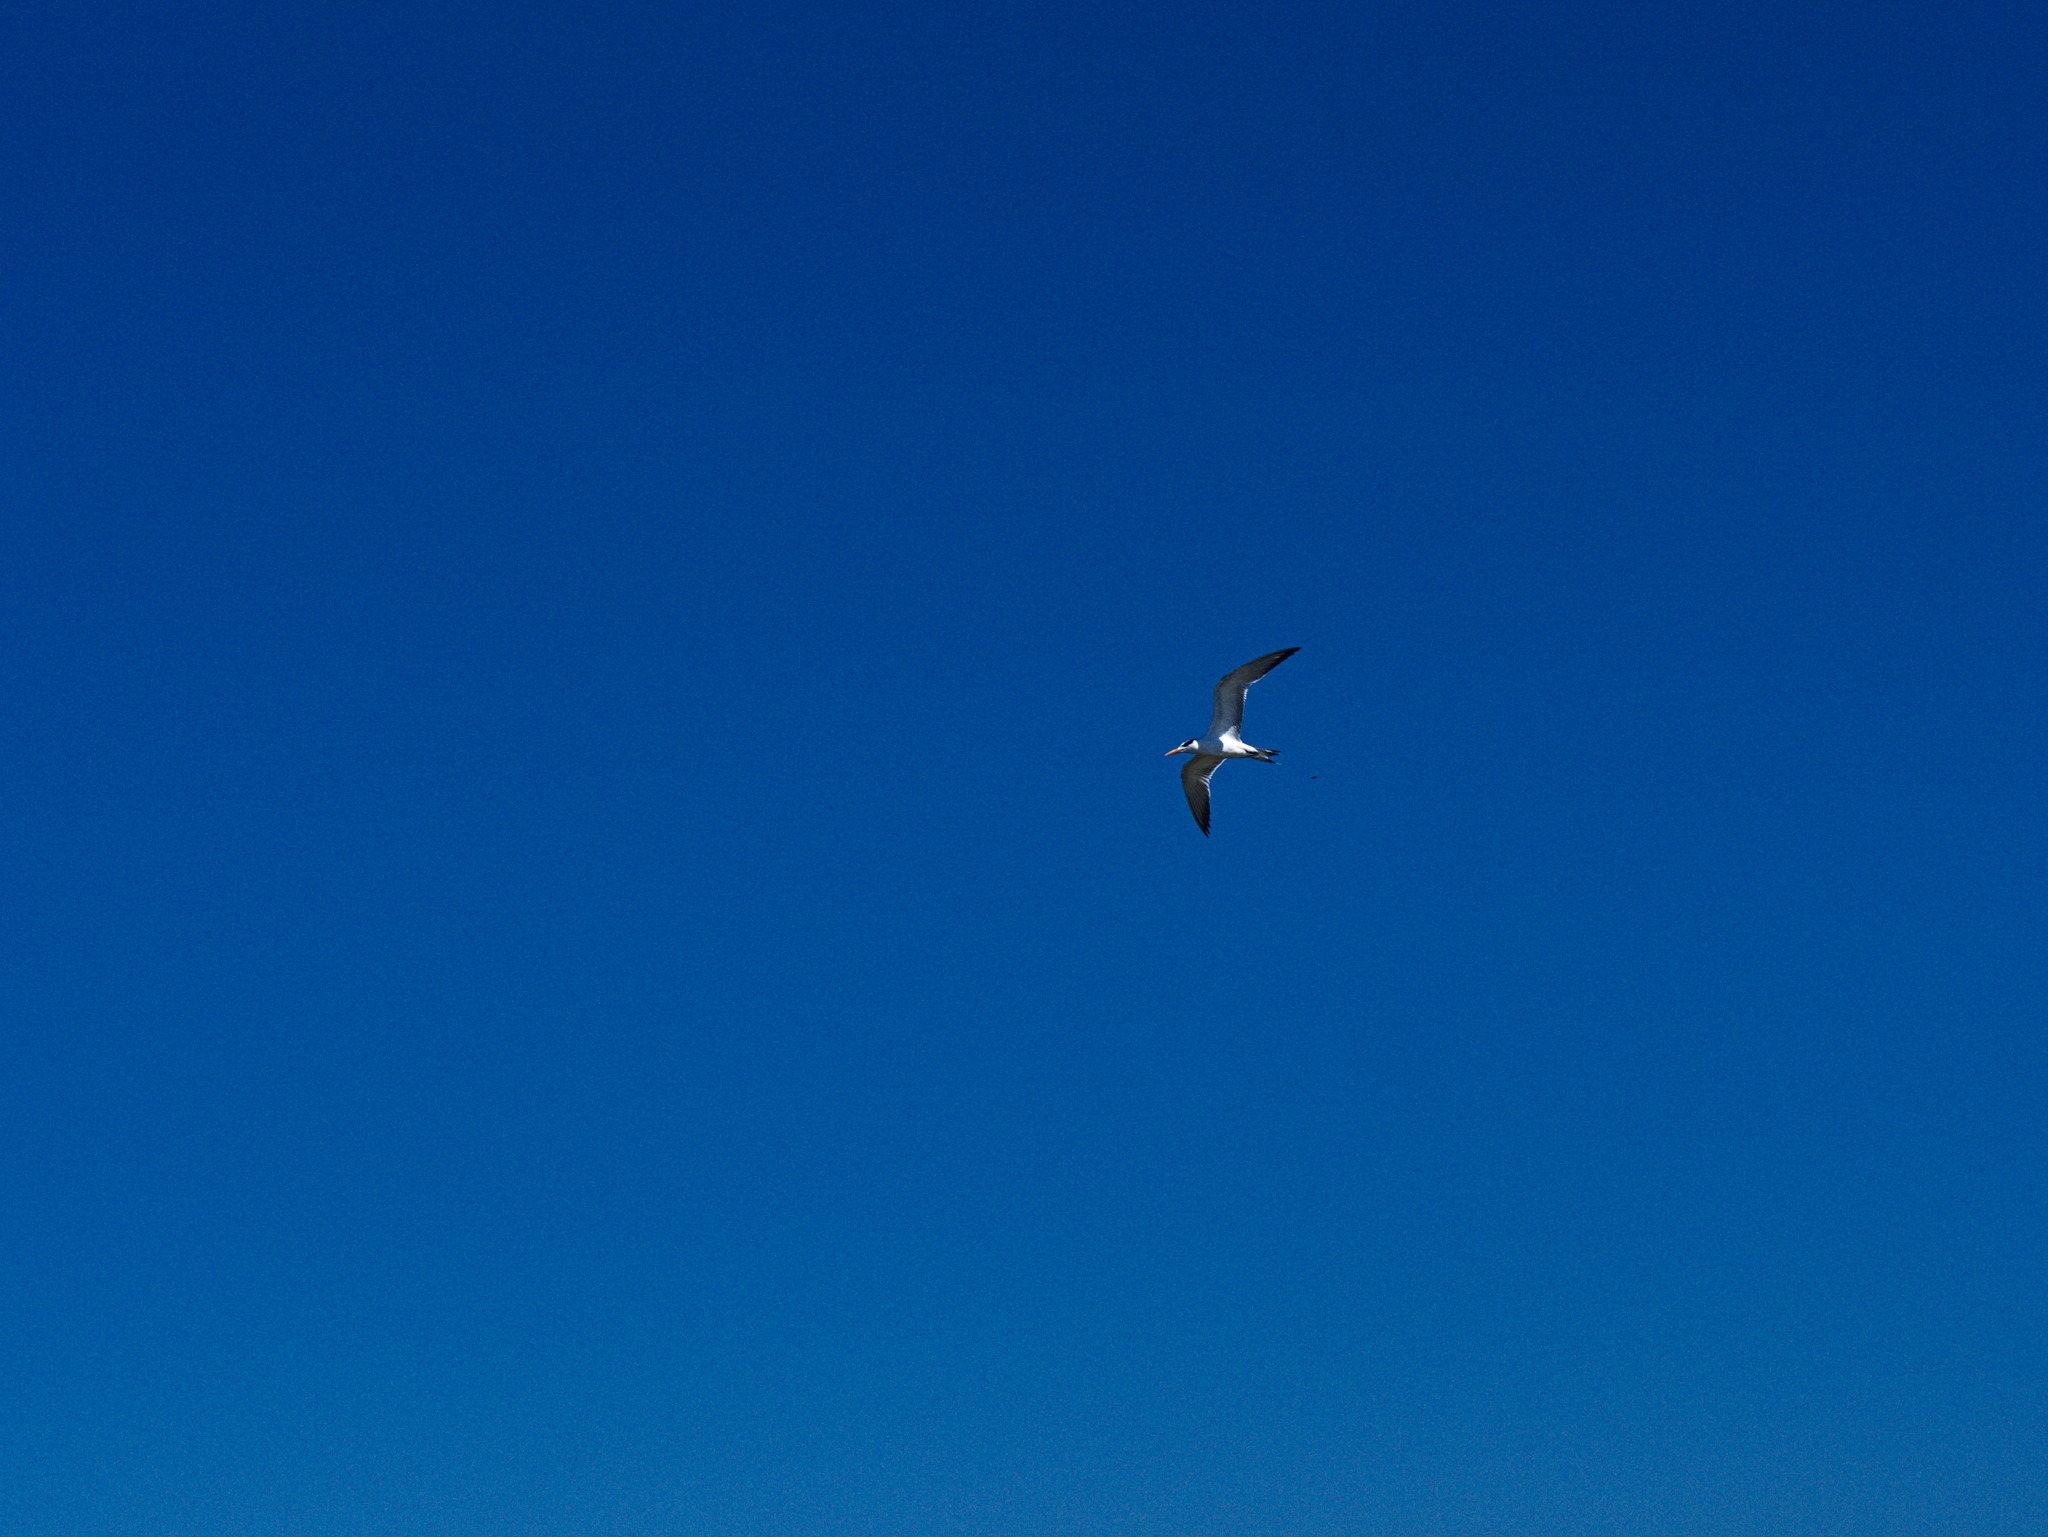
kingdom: Animalia
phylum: Chordata
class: Aves
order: Charadriiformes
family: Laridae
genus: Thalasseus
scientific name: Thalasseus maximus
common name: Royal tern
